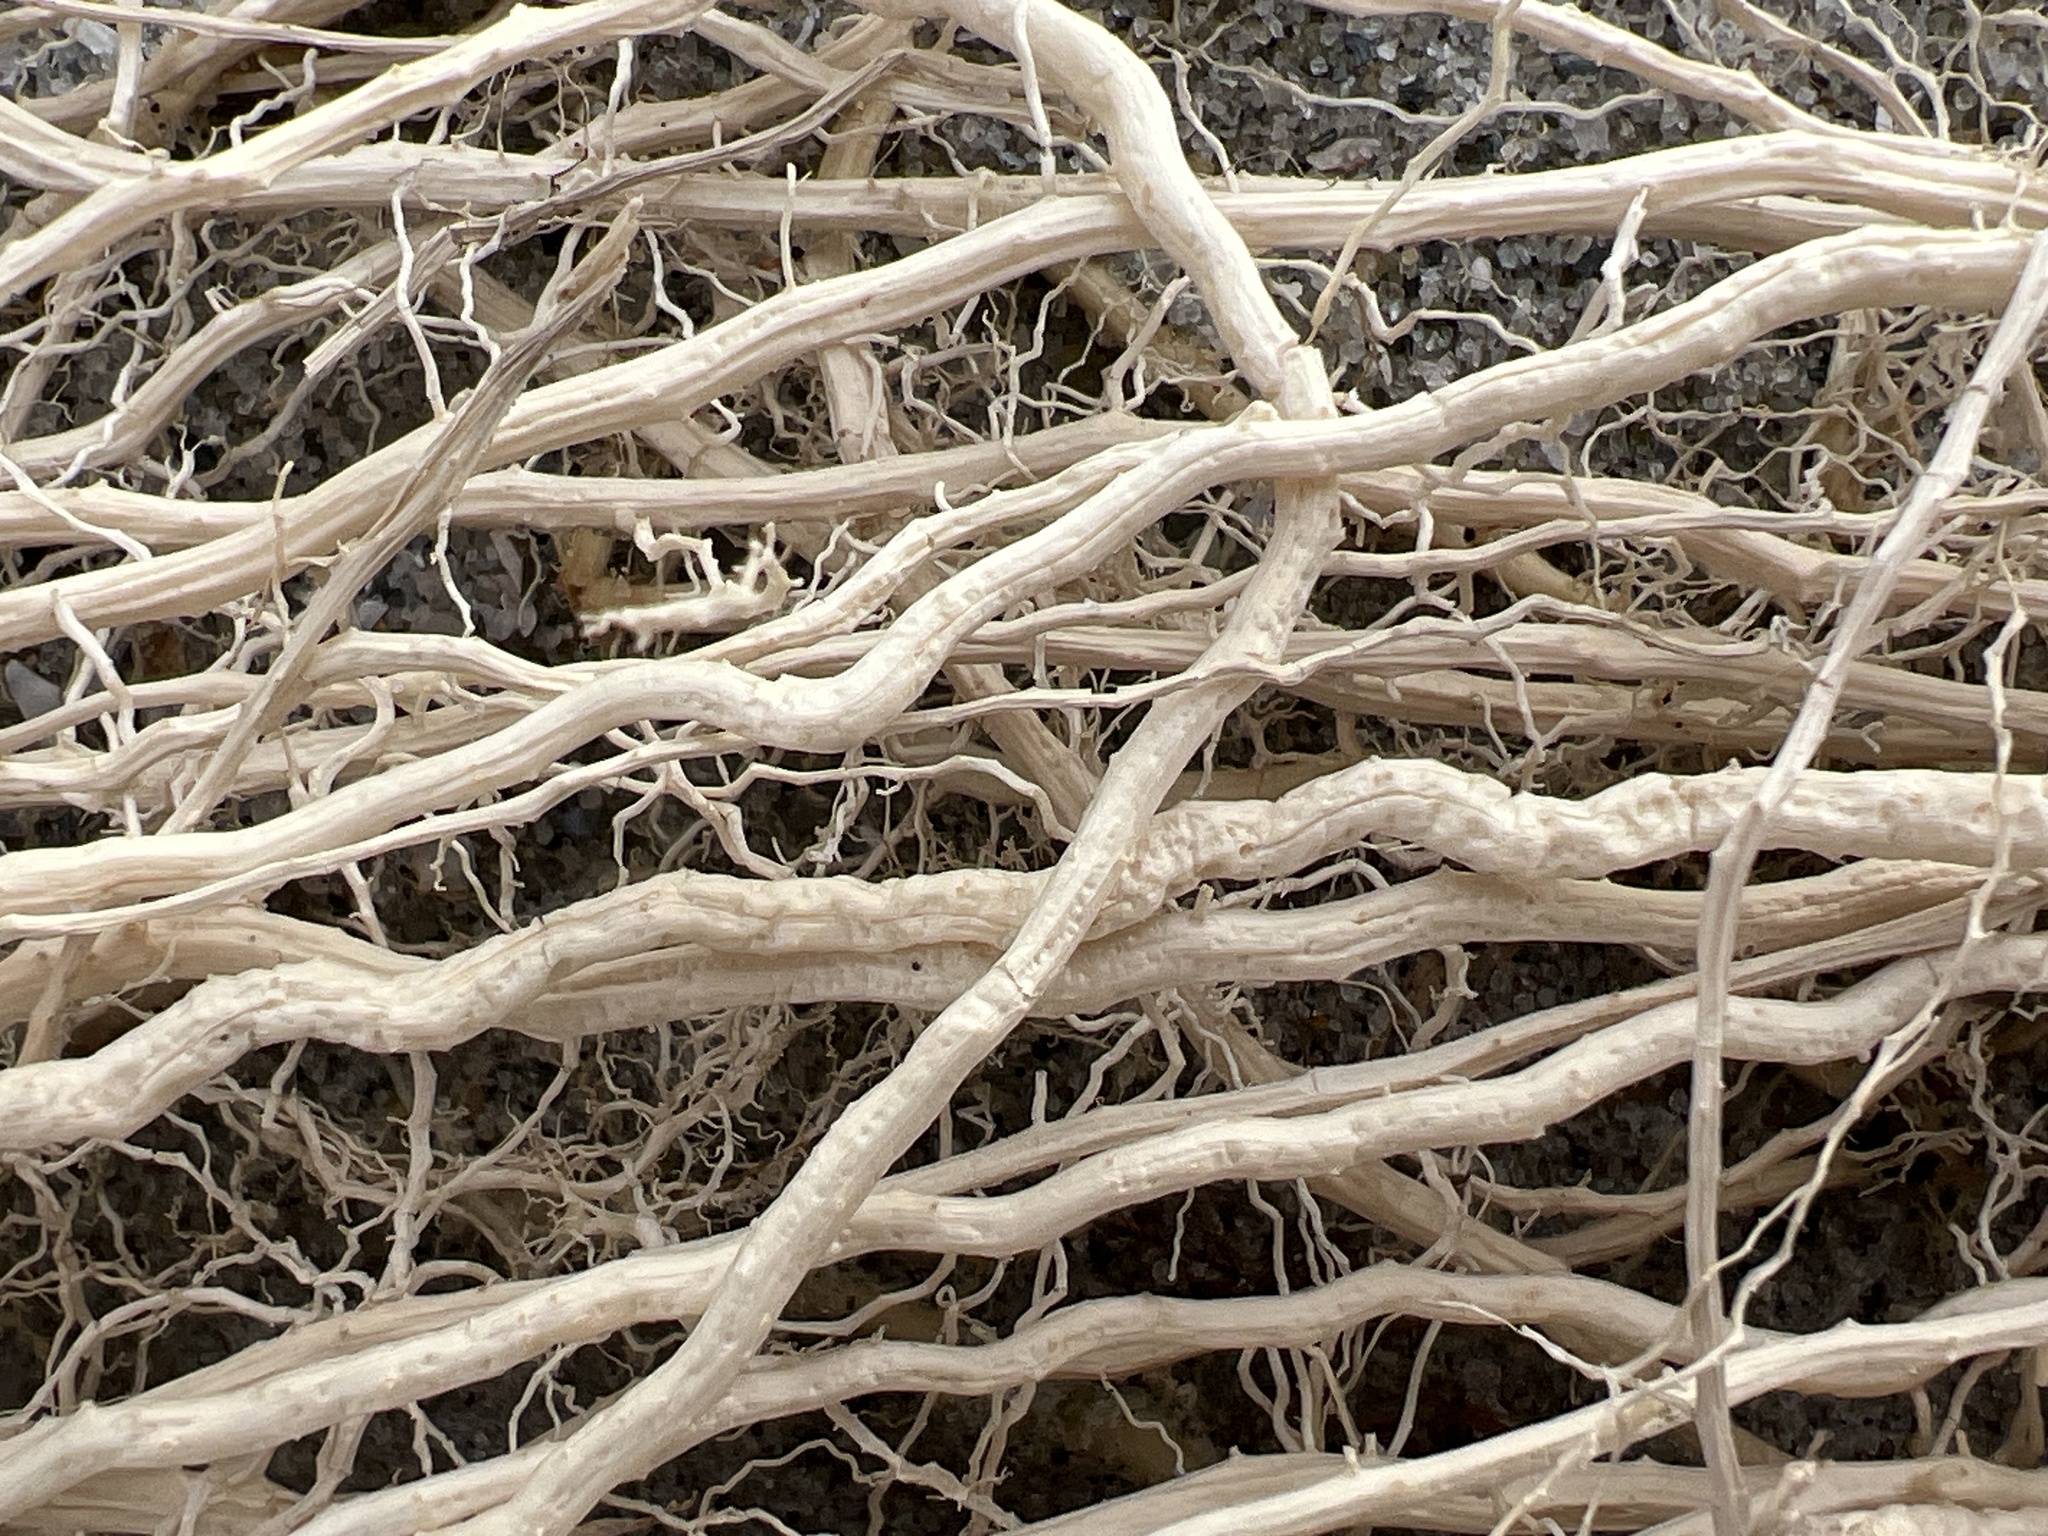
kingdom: Plantae
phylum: Tracheophyta
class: Liliopsida
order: Poales
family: Poaceae
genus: Uniola
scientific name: Uniola paniculata
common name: Seaside-oats
